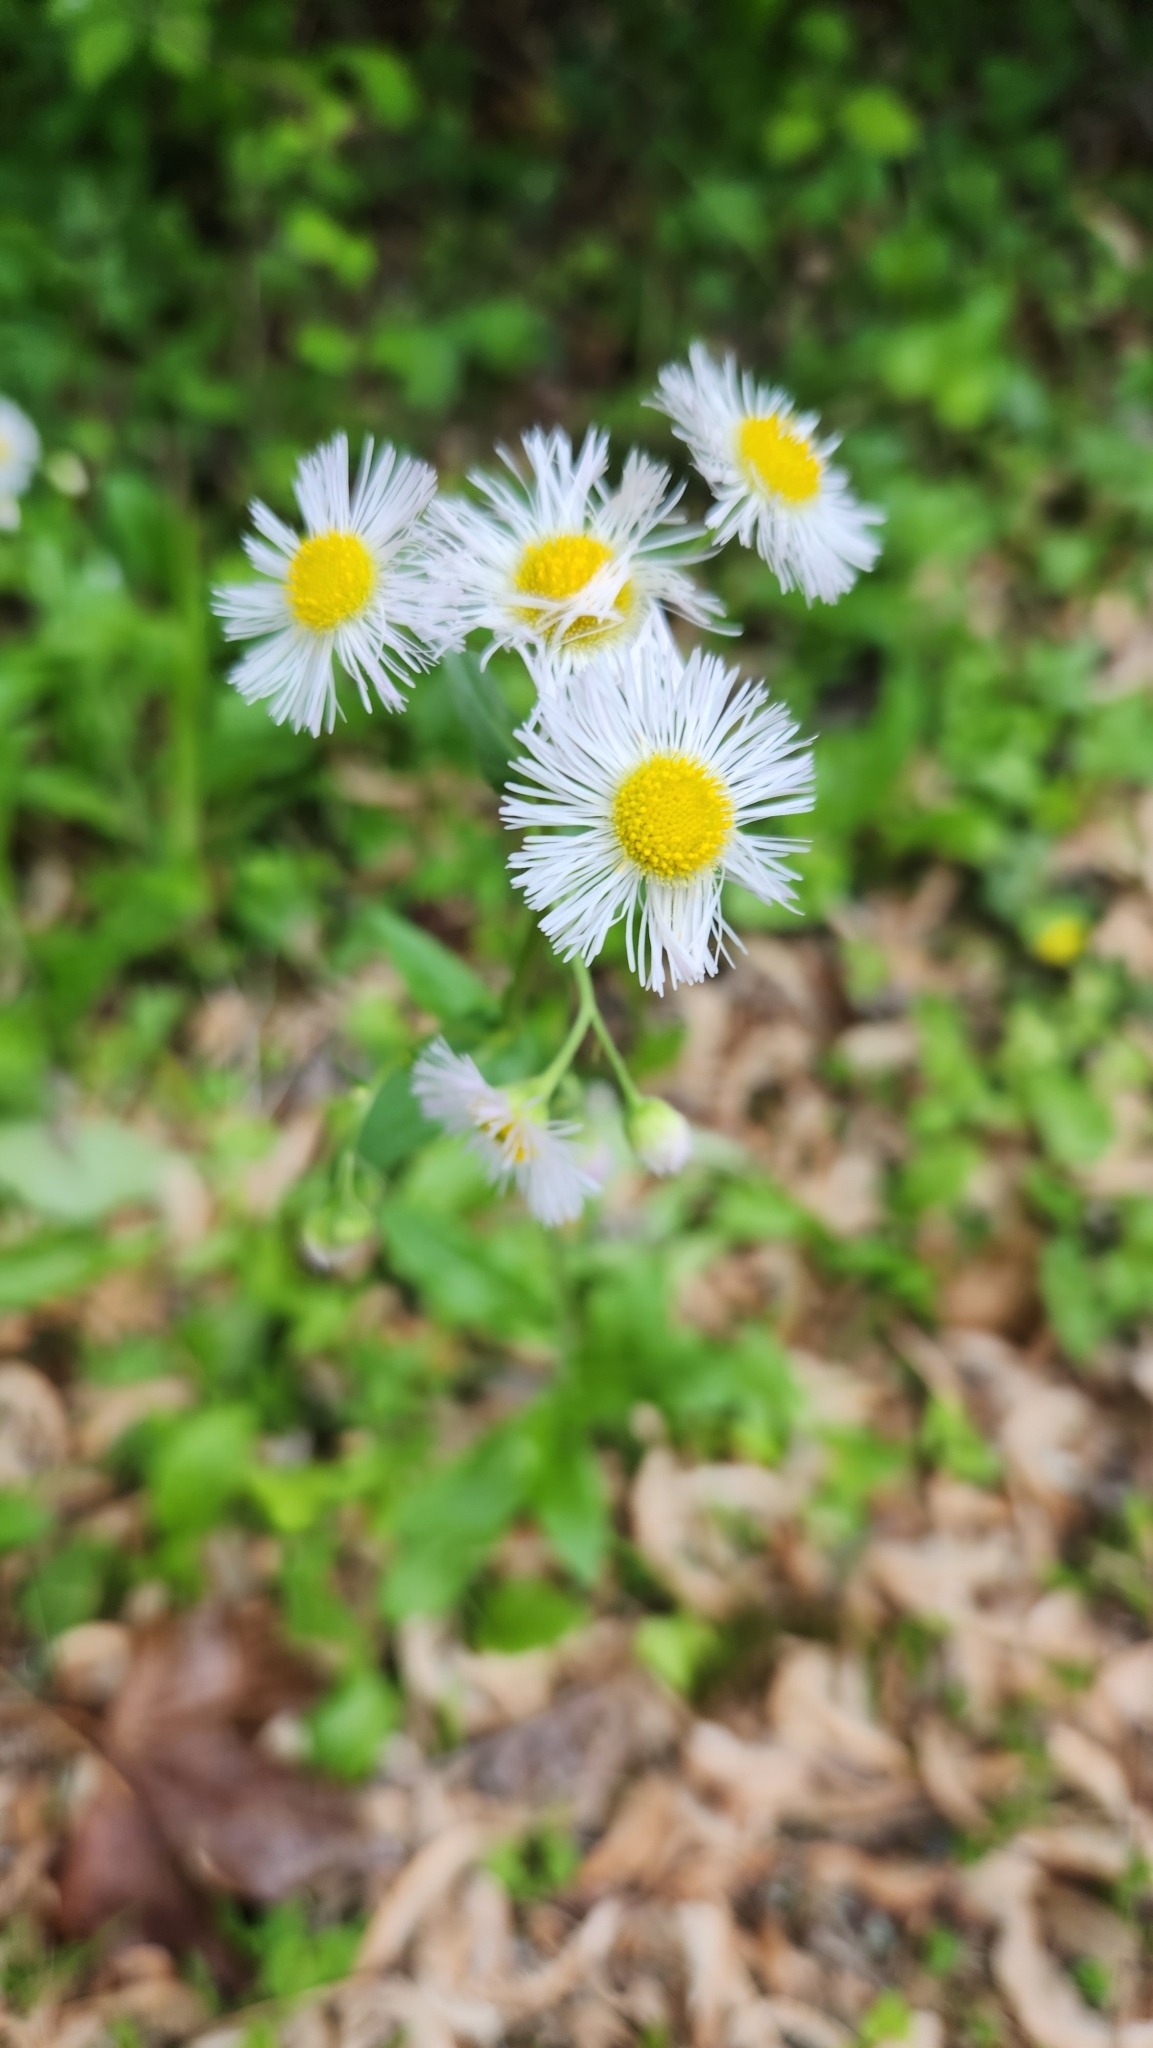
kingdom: Plantae
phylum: Tracheophyta
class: Magnoliopsida
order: Asterales
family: Asteraceae
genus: Erigeron
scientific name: Erigeron philadelphicus
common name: Robin's-plantain
